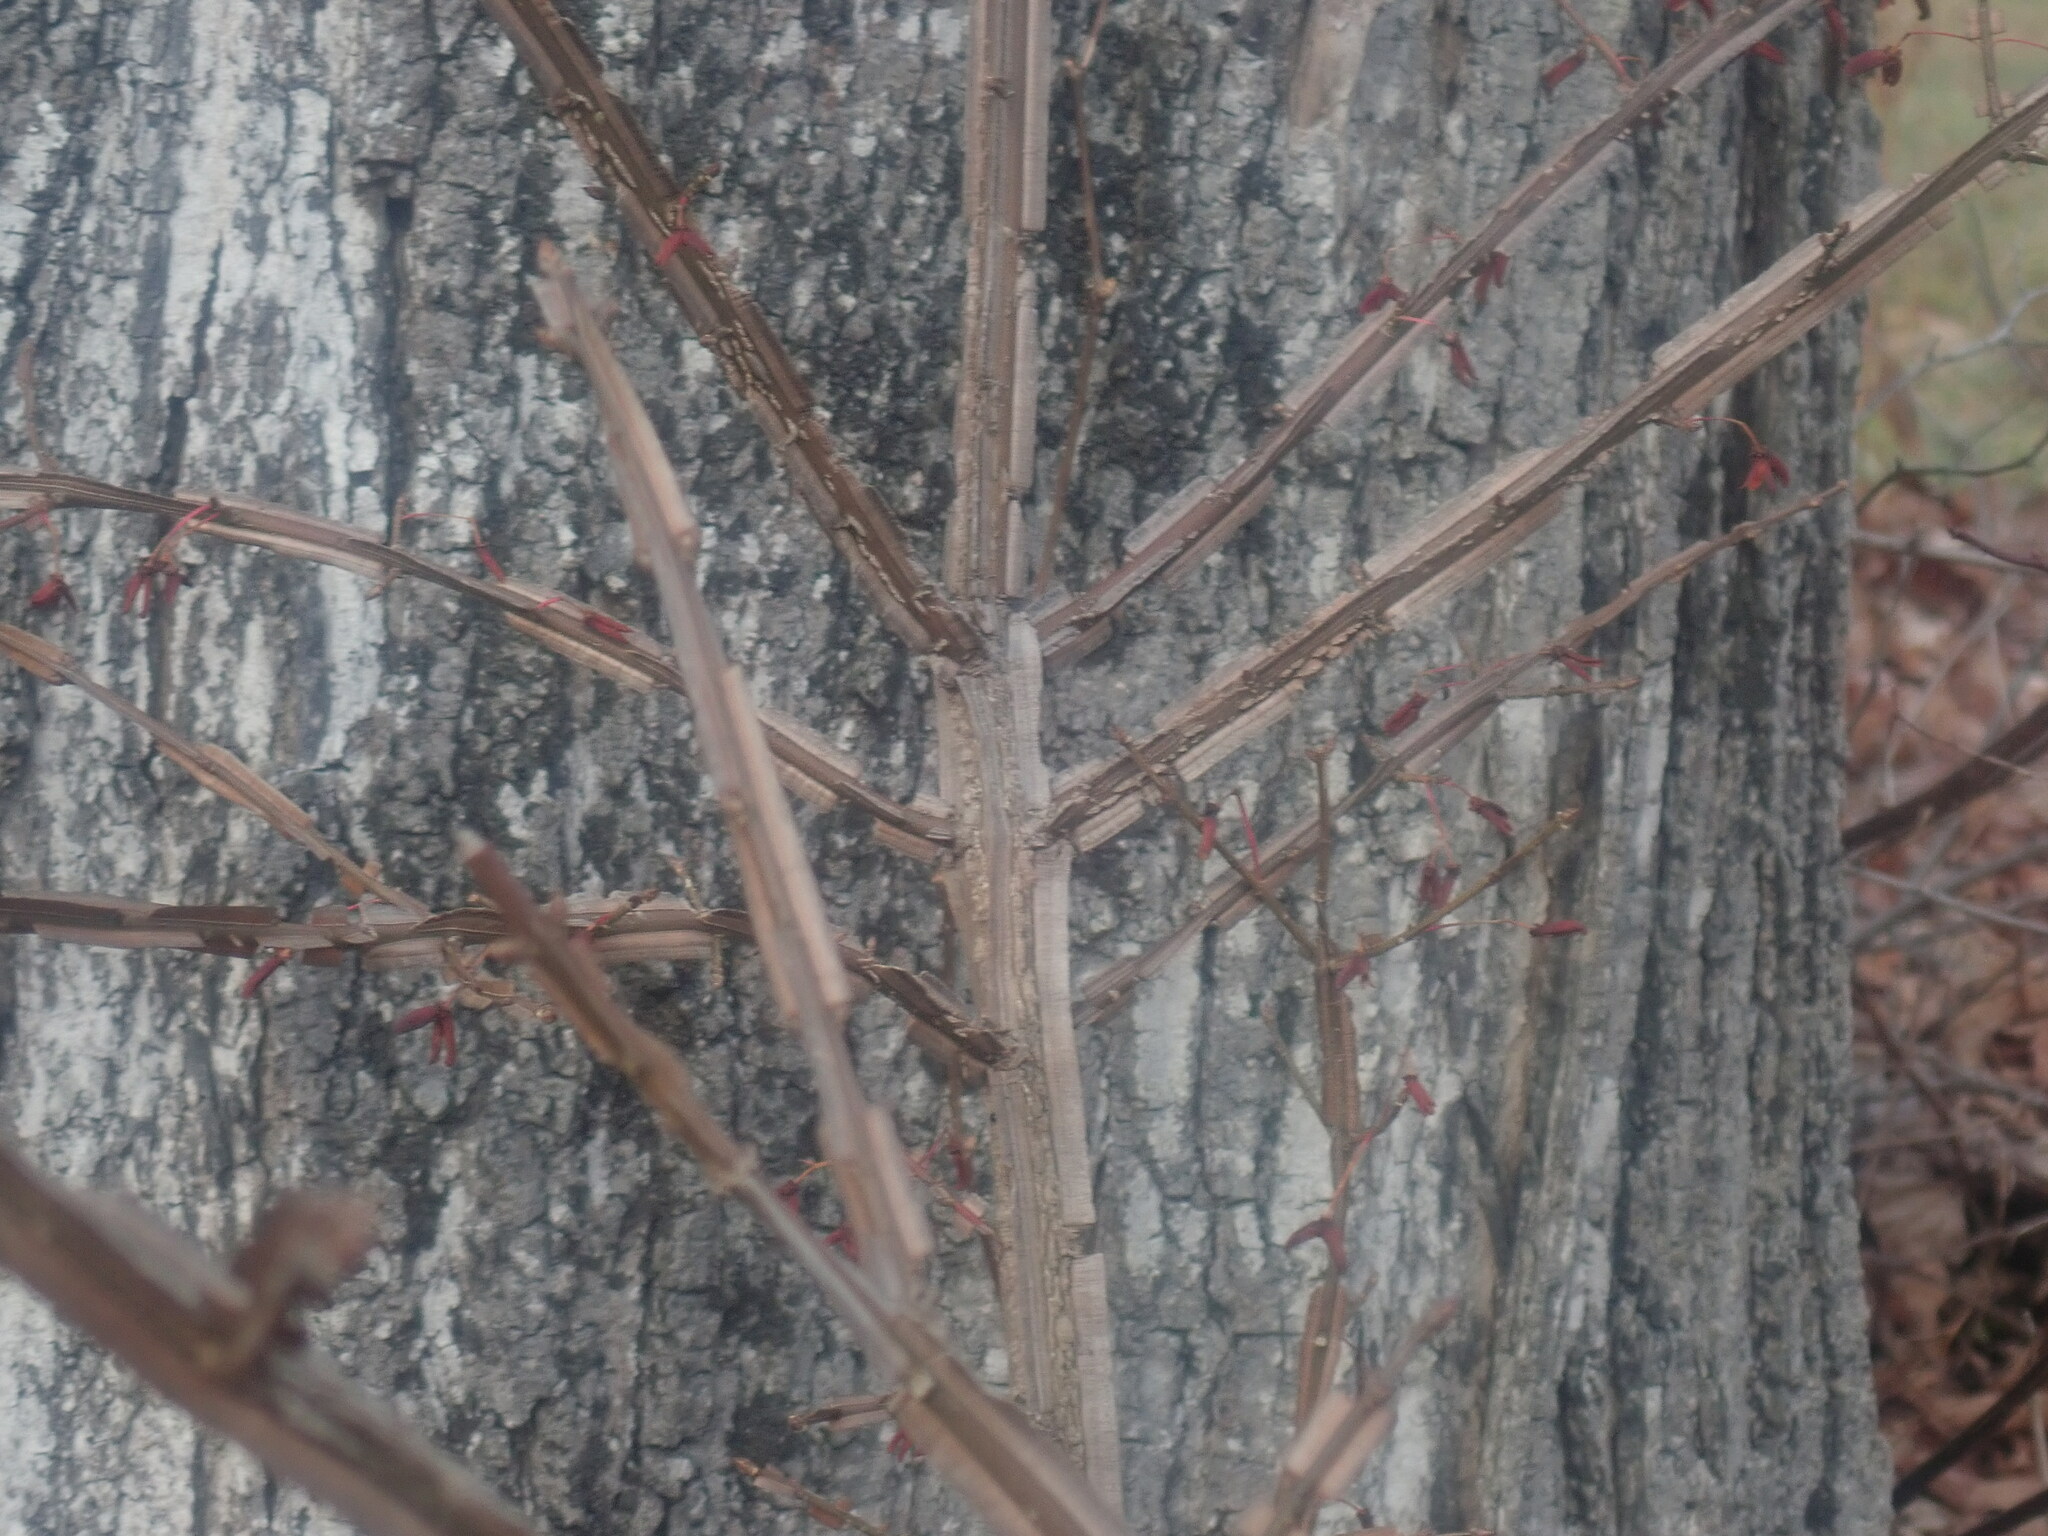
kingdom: Plantae
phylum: Tracheophyta
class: Magnoliopsida
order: Celastrales
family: Celastraceae
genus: Euonymus
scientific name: Euonymus alatus
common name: Winged euonymus
